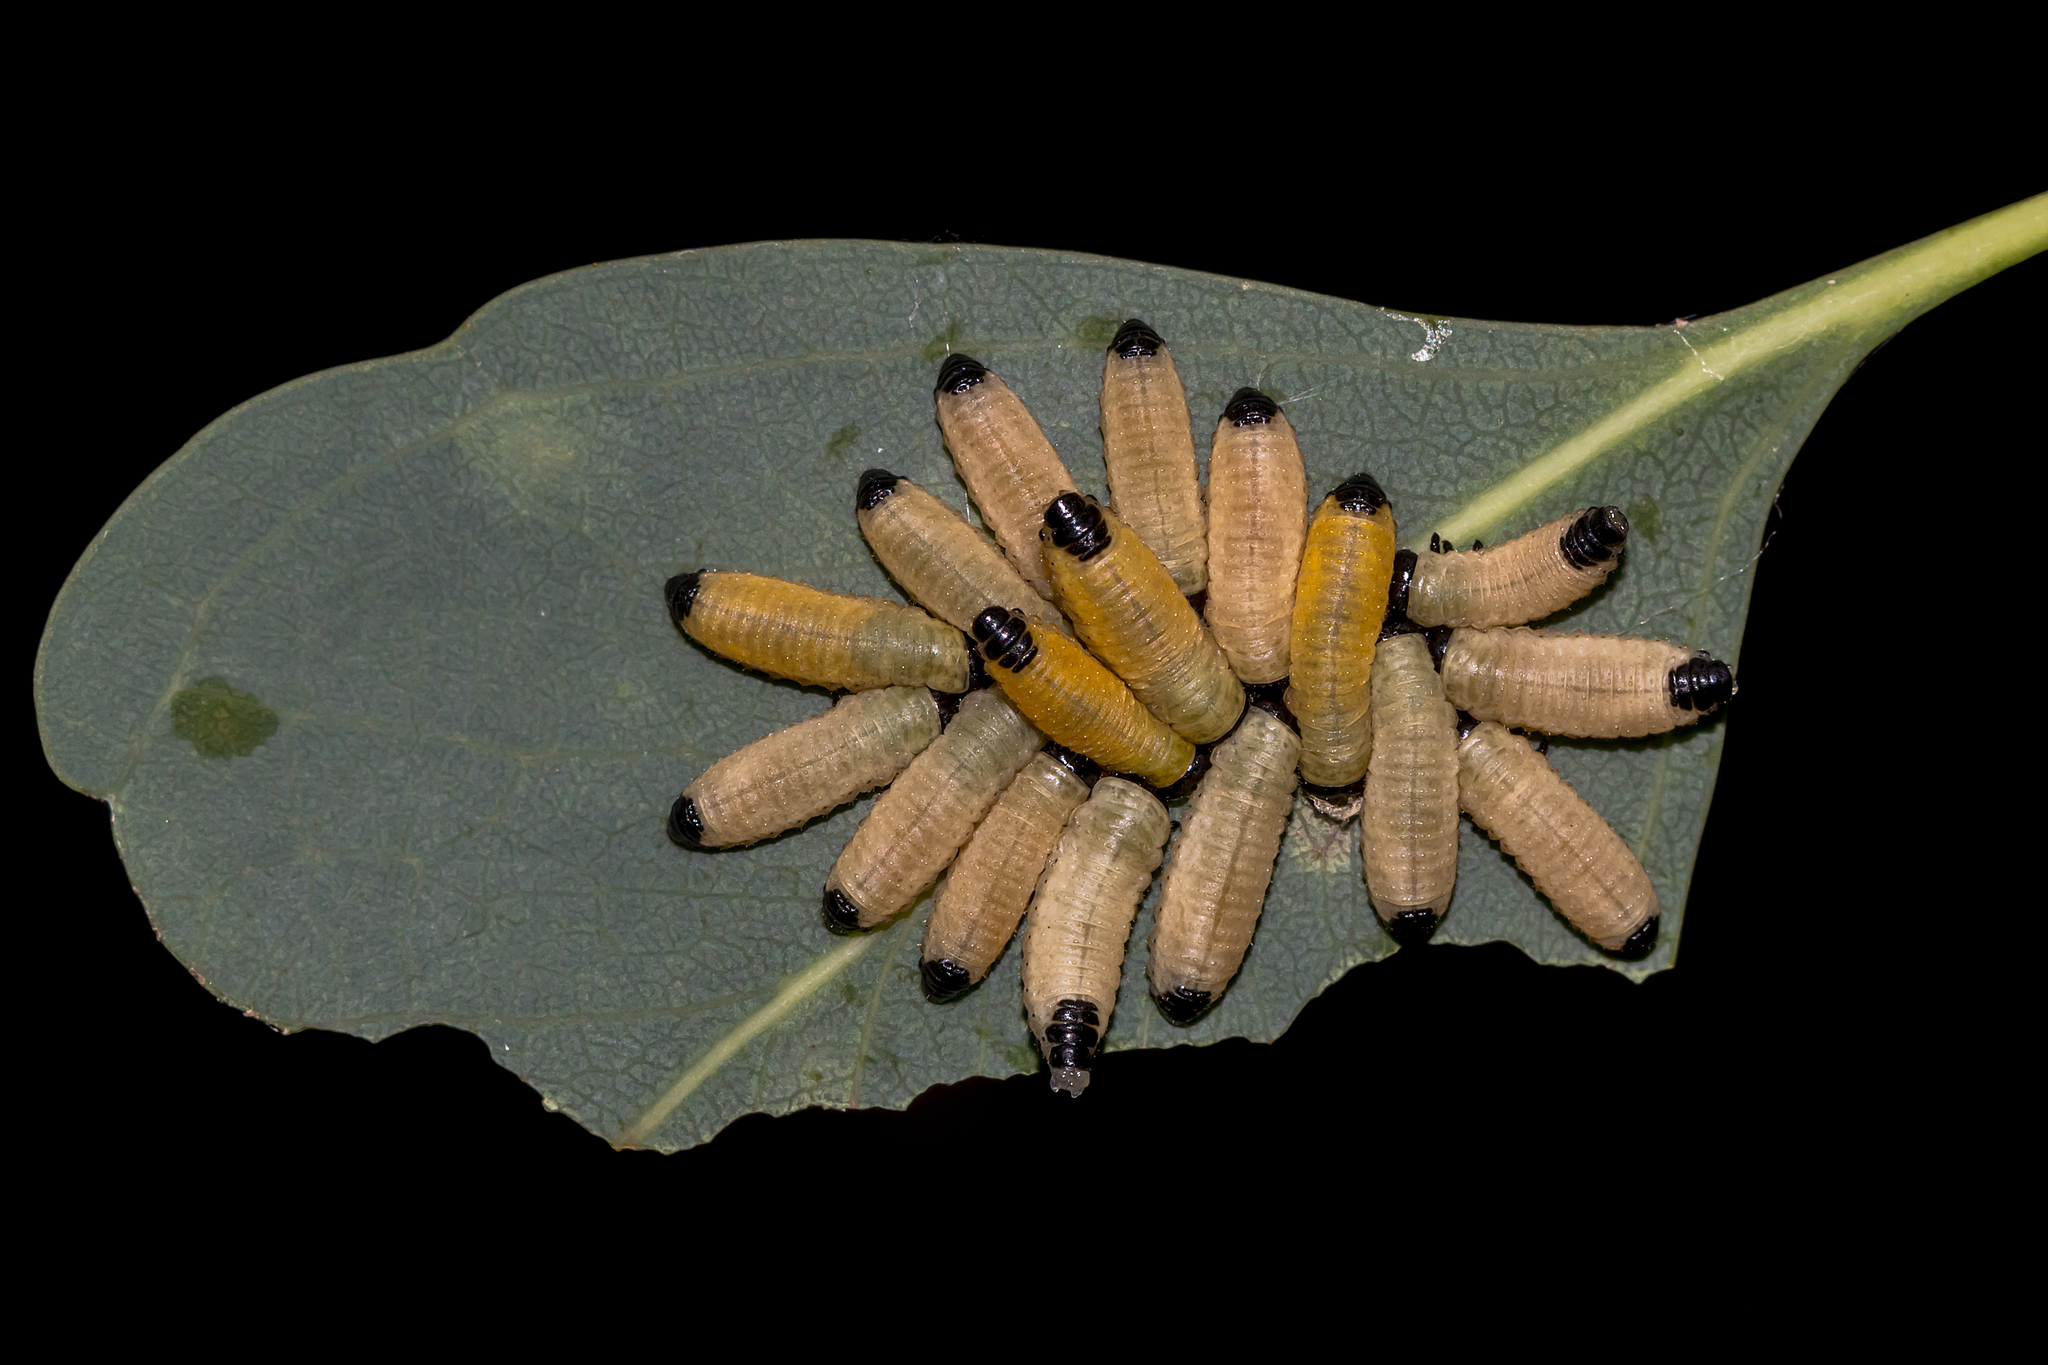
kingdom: Animalia
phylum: Arthropoda
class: Insecta
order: Coleoptera
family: Chrysomelidae
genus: Paropsisterna
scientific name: Paropsisterna cloelia
